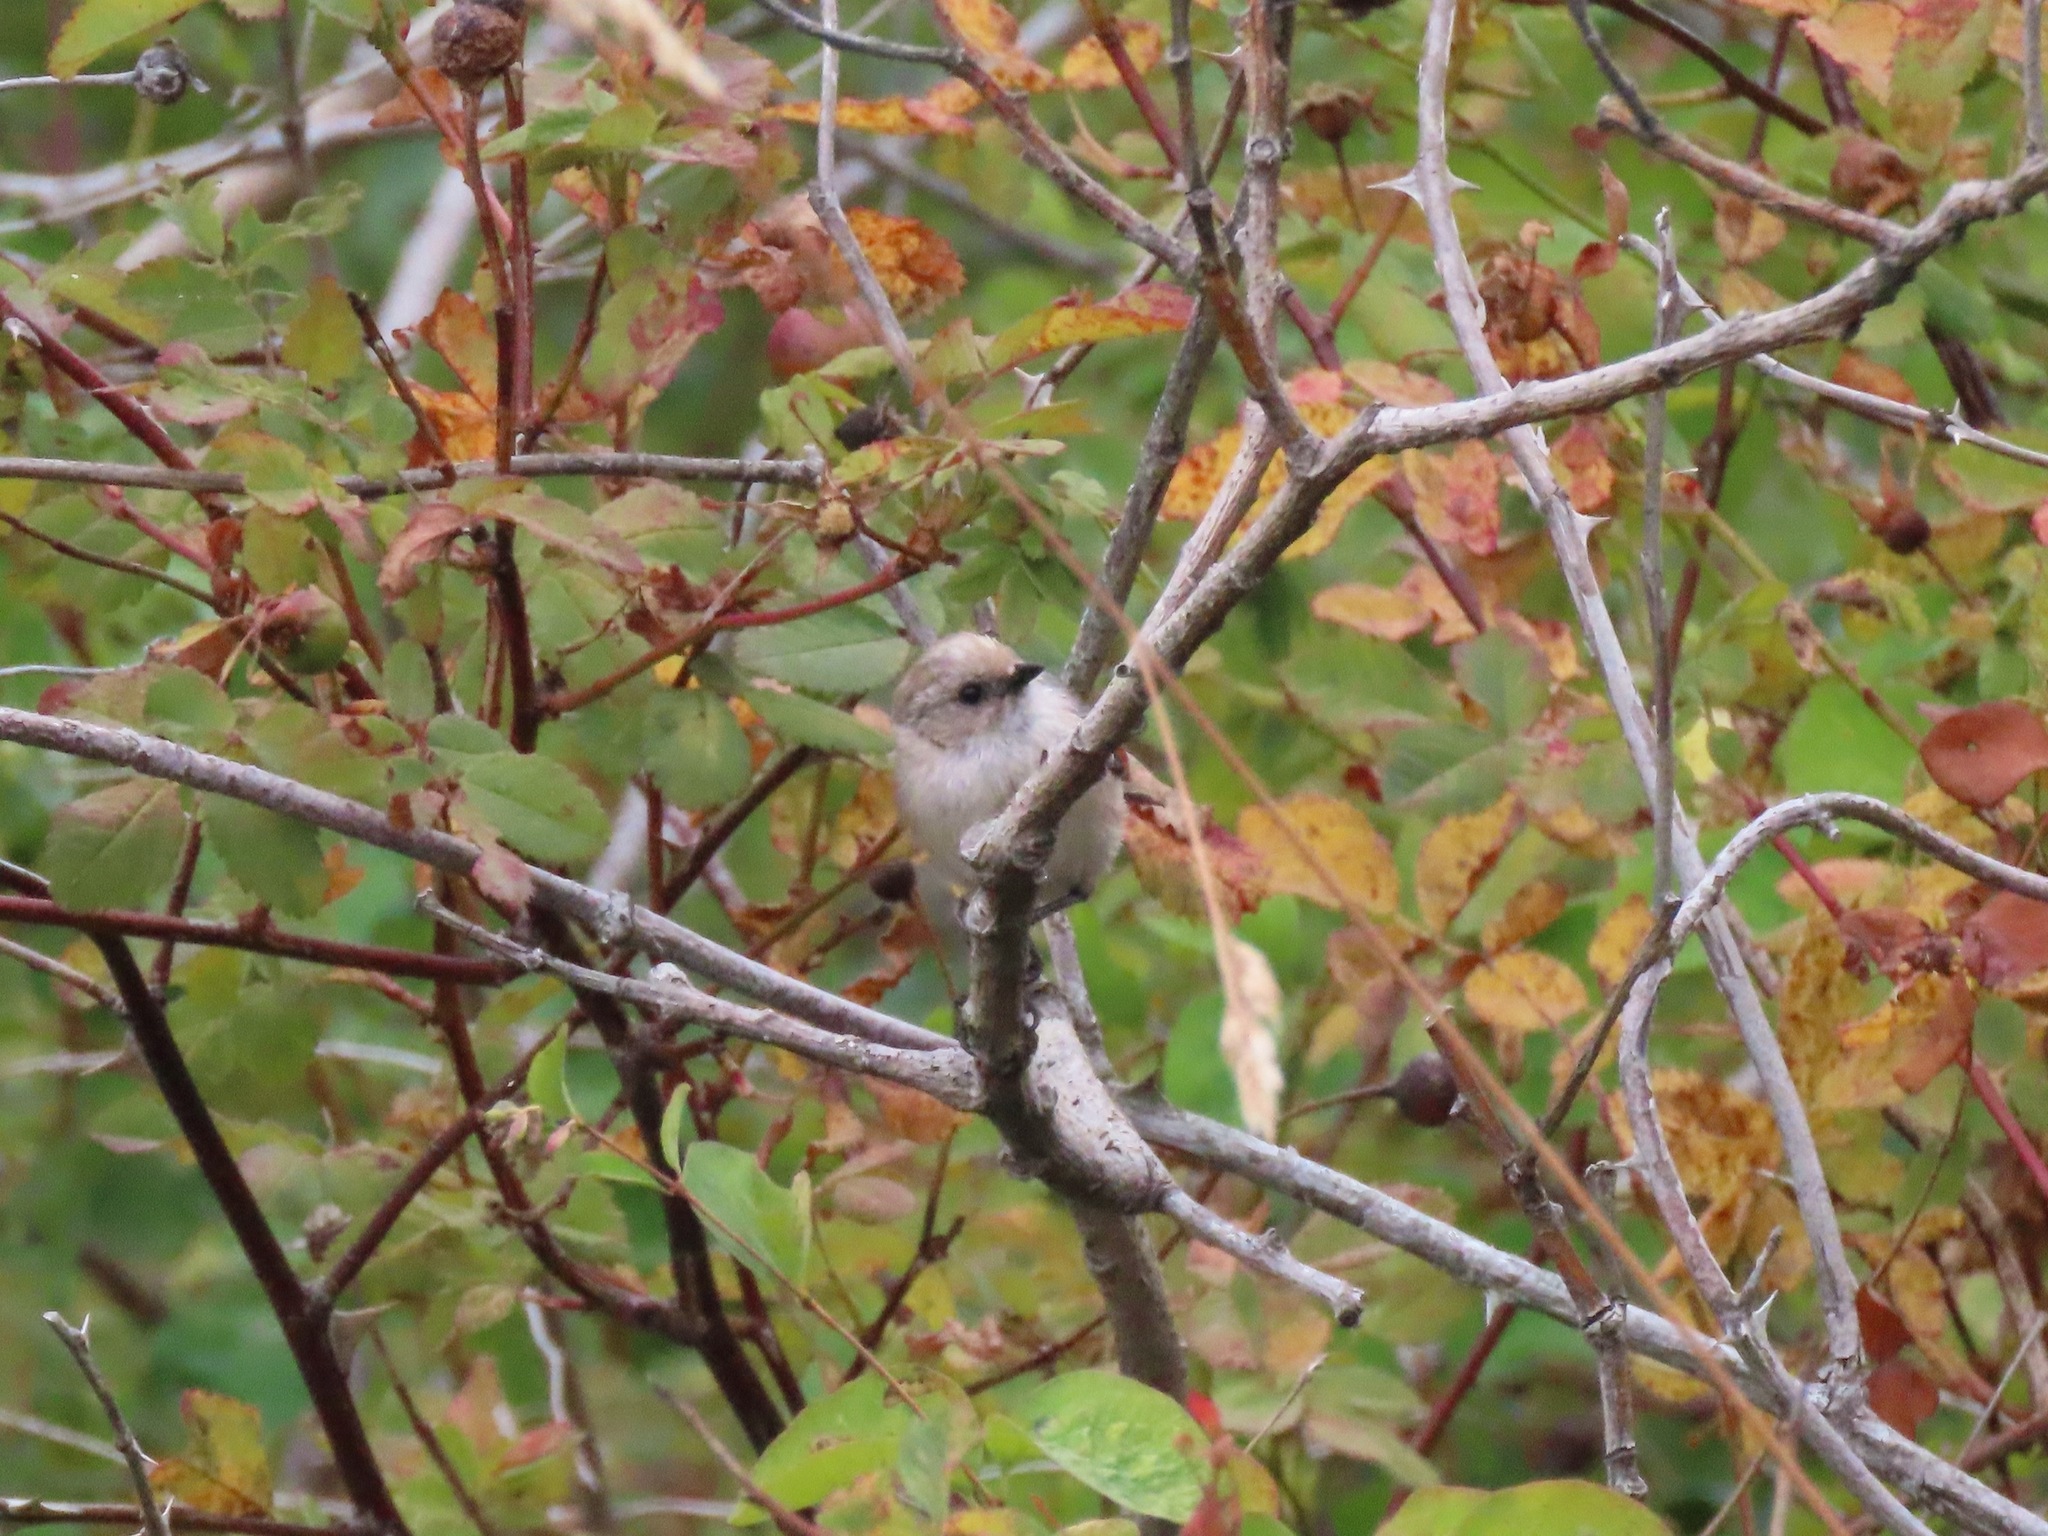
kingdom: Animalia
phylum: Chordata
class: Aves
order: Passeriformes
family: Aegithalidae
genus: Psaltriparus
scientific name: Psaltriparus minimus
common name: American bushtit
